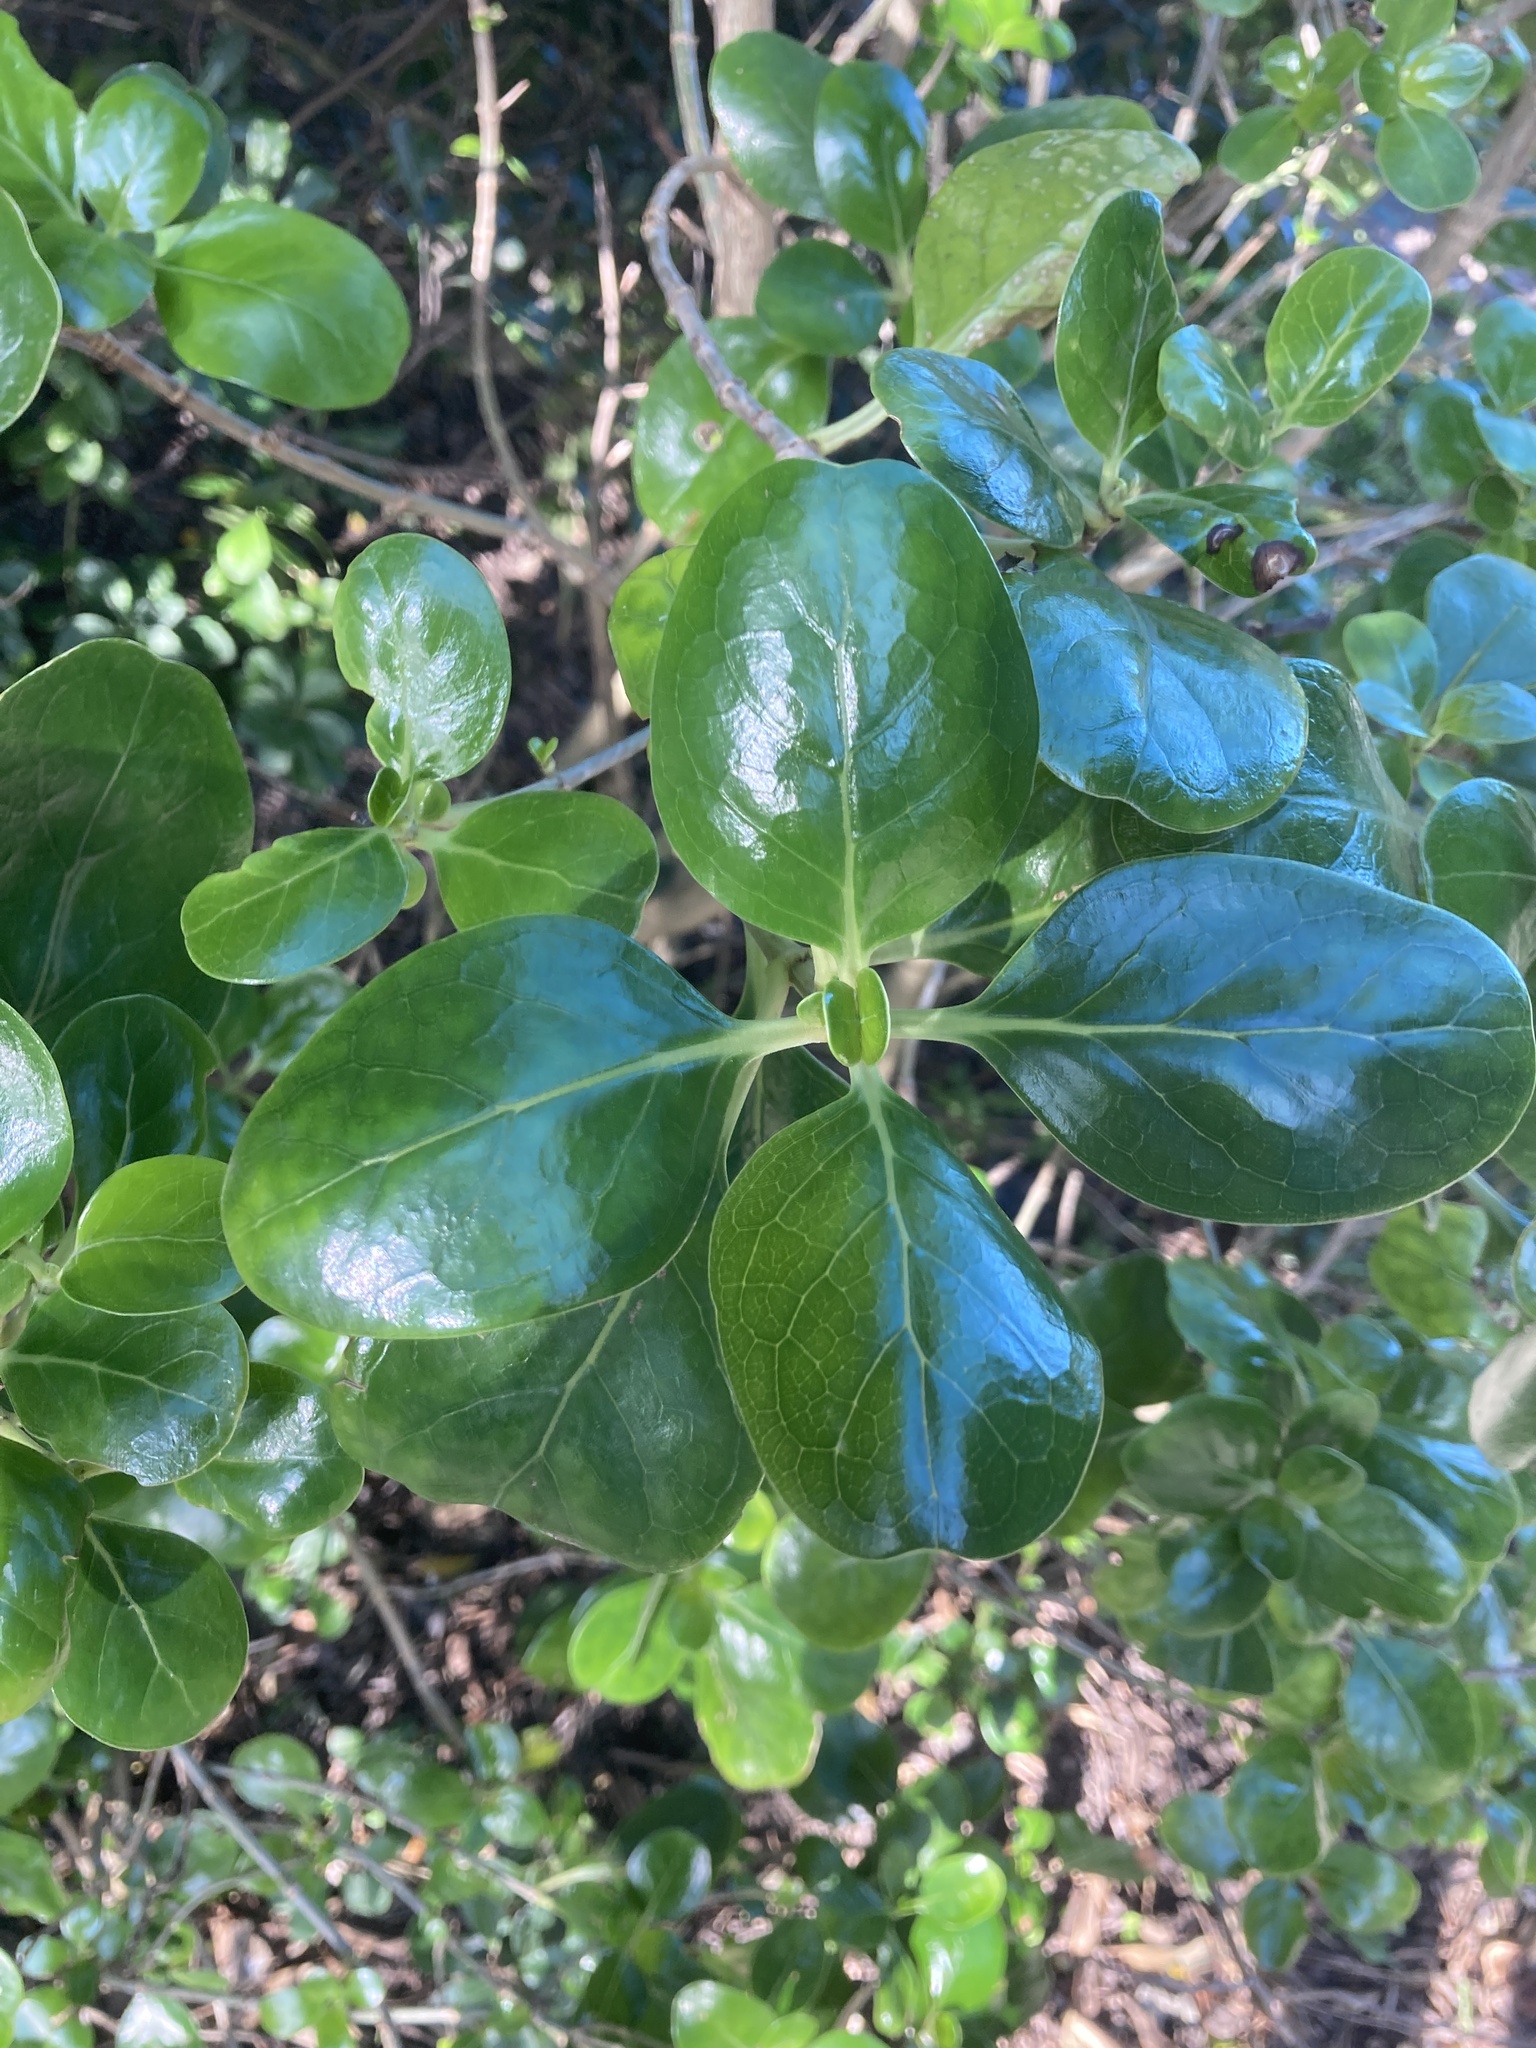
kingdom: Plantae
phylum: Tracheophyta
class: Magnoliopsida
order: Gentianales
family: Rubiaceae
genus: Coprosma
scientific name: Coprosma repens
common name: Tree bedstraw
